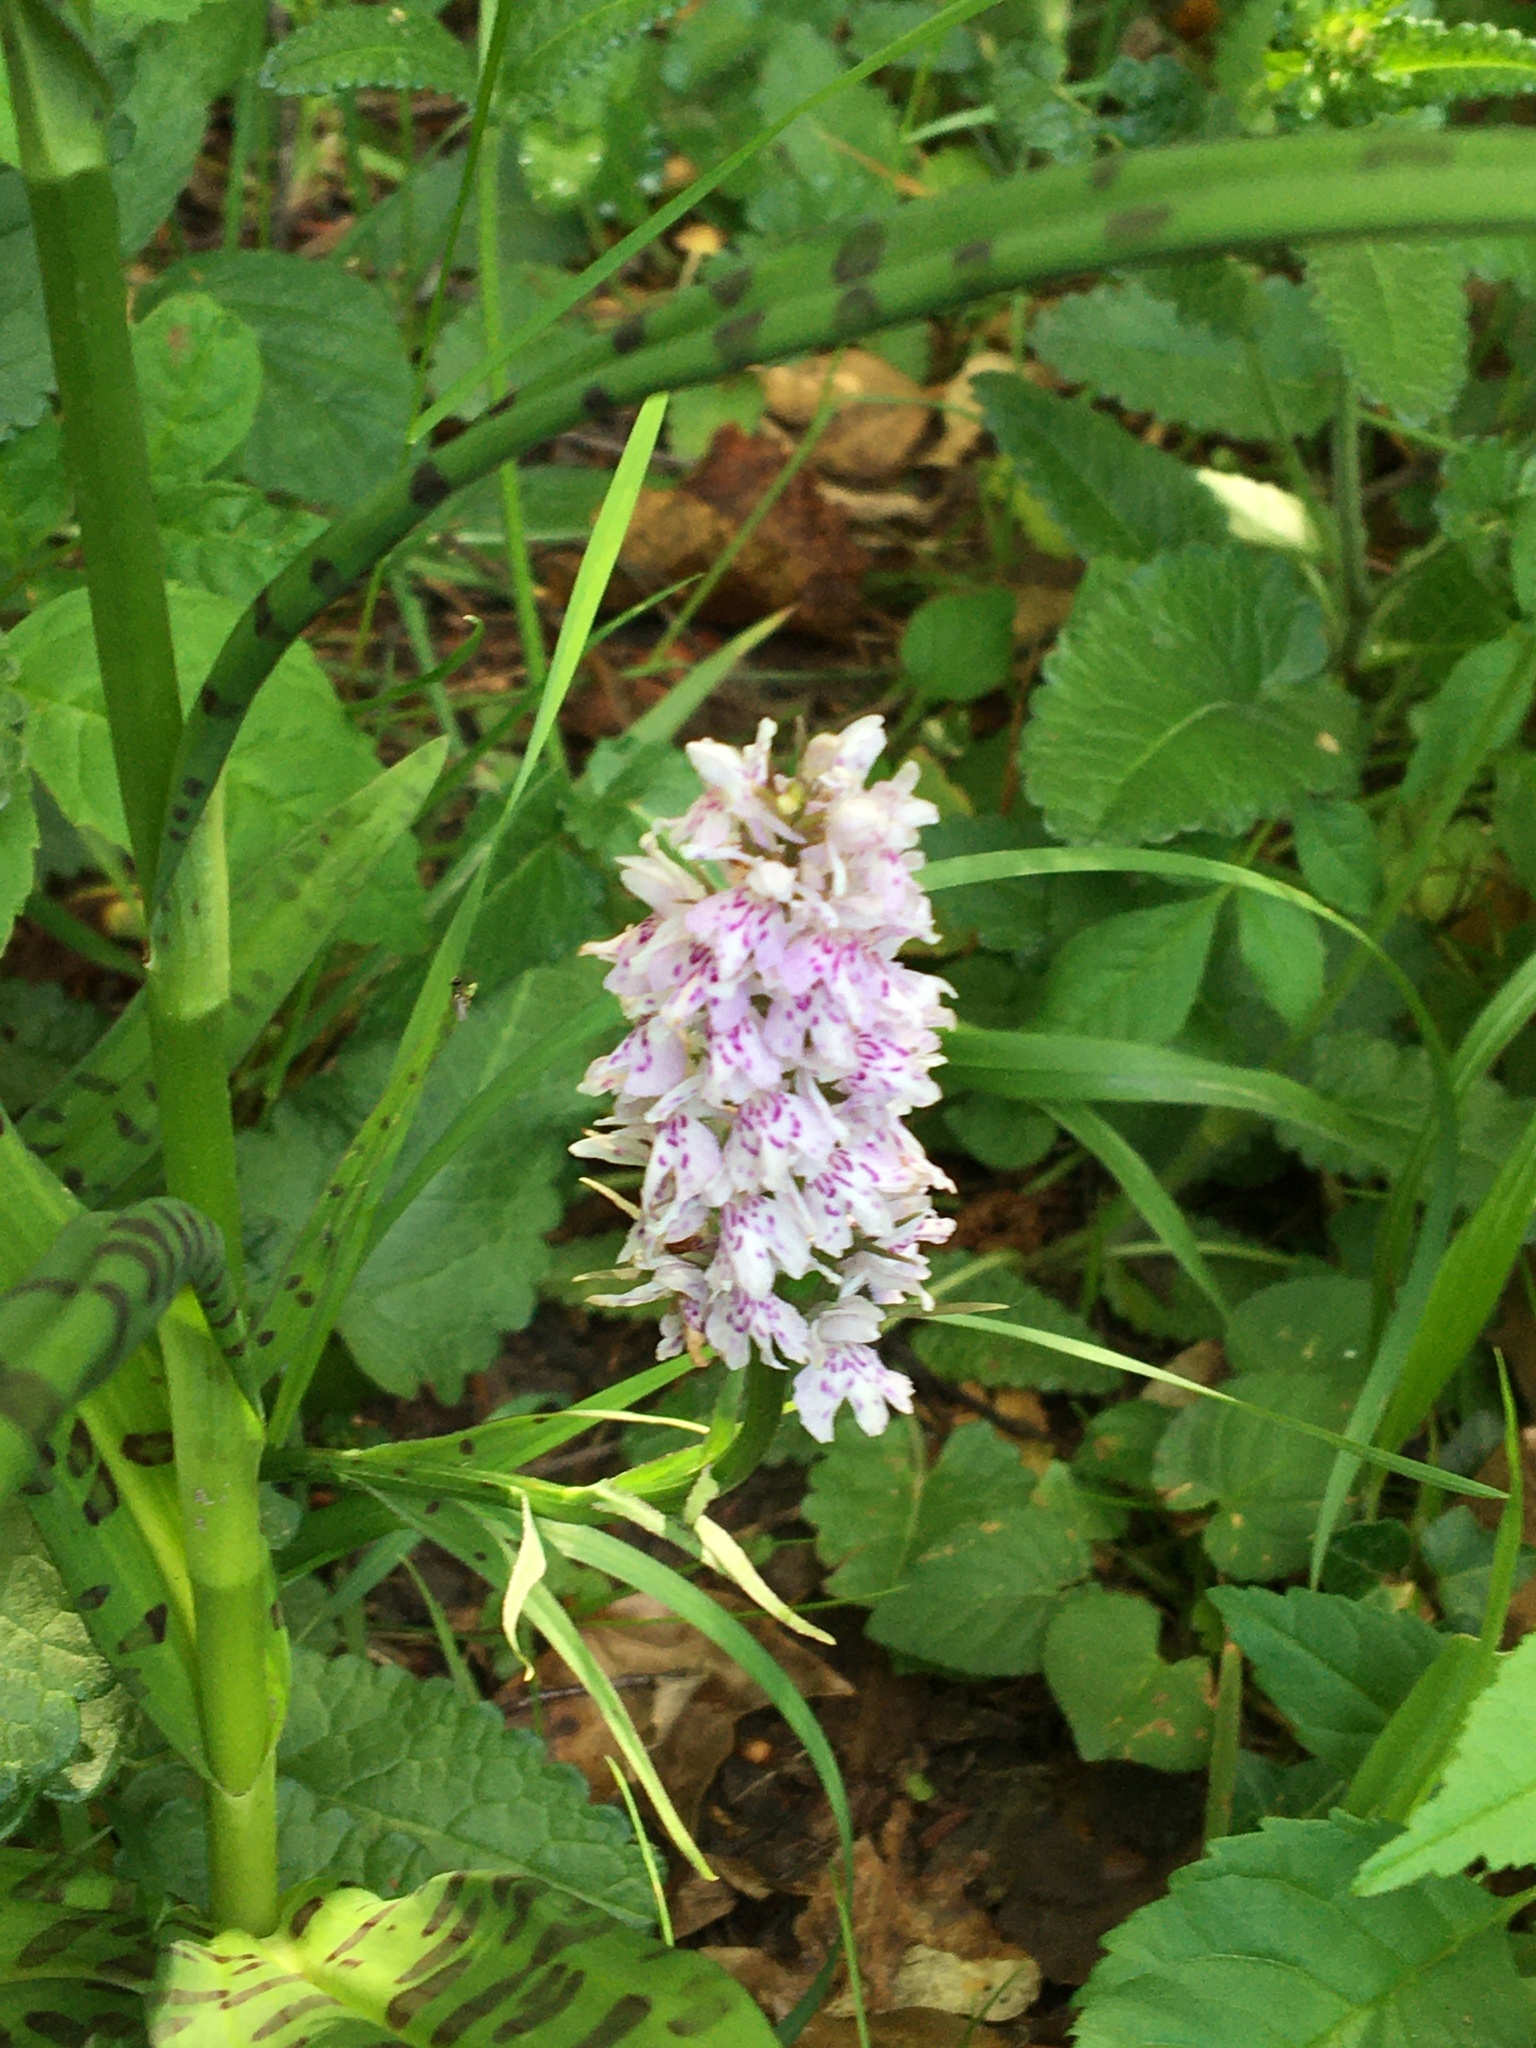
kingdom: Plantae
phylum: Tracheophyta
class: Liliopsida
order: Asparagales
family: Orchidaceae
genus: Dactylorhiza
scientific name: Dactylorhiza maculata
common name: Heath spotted-orchid
